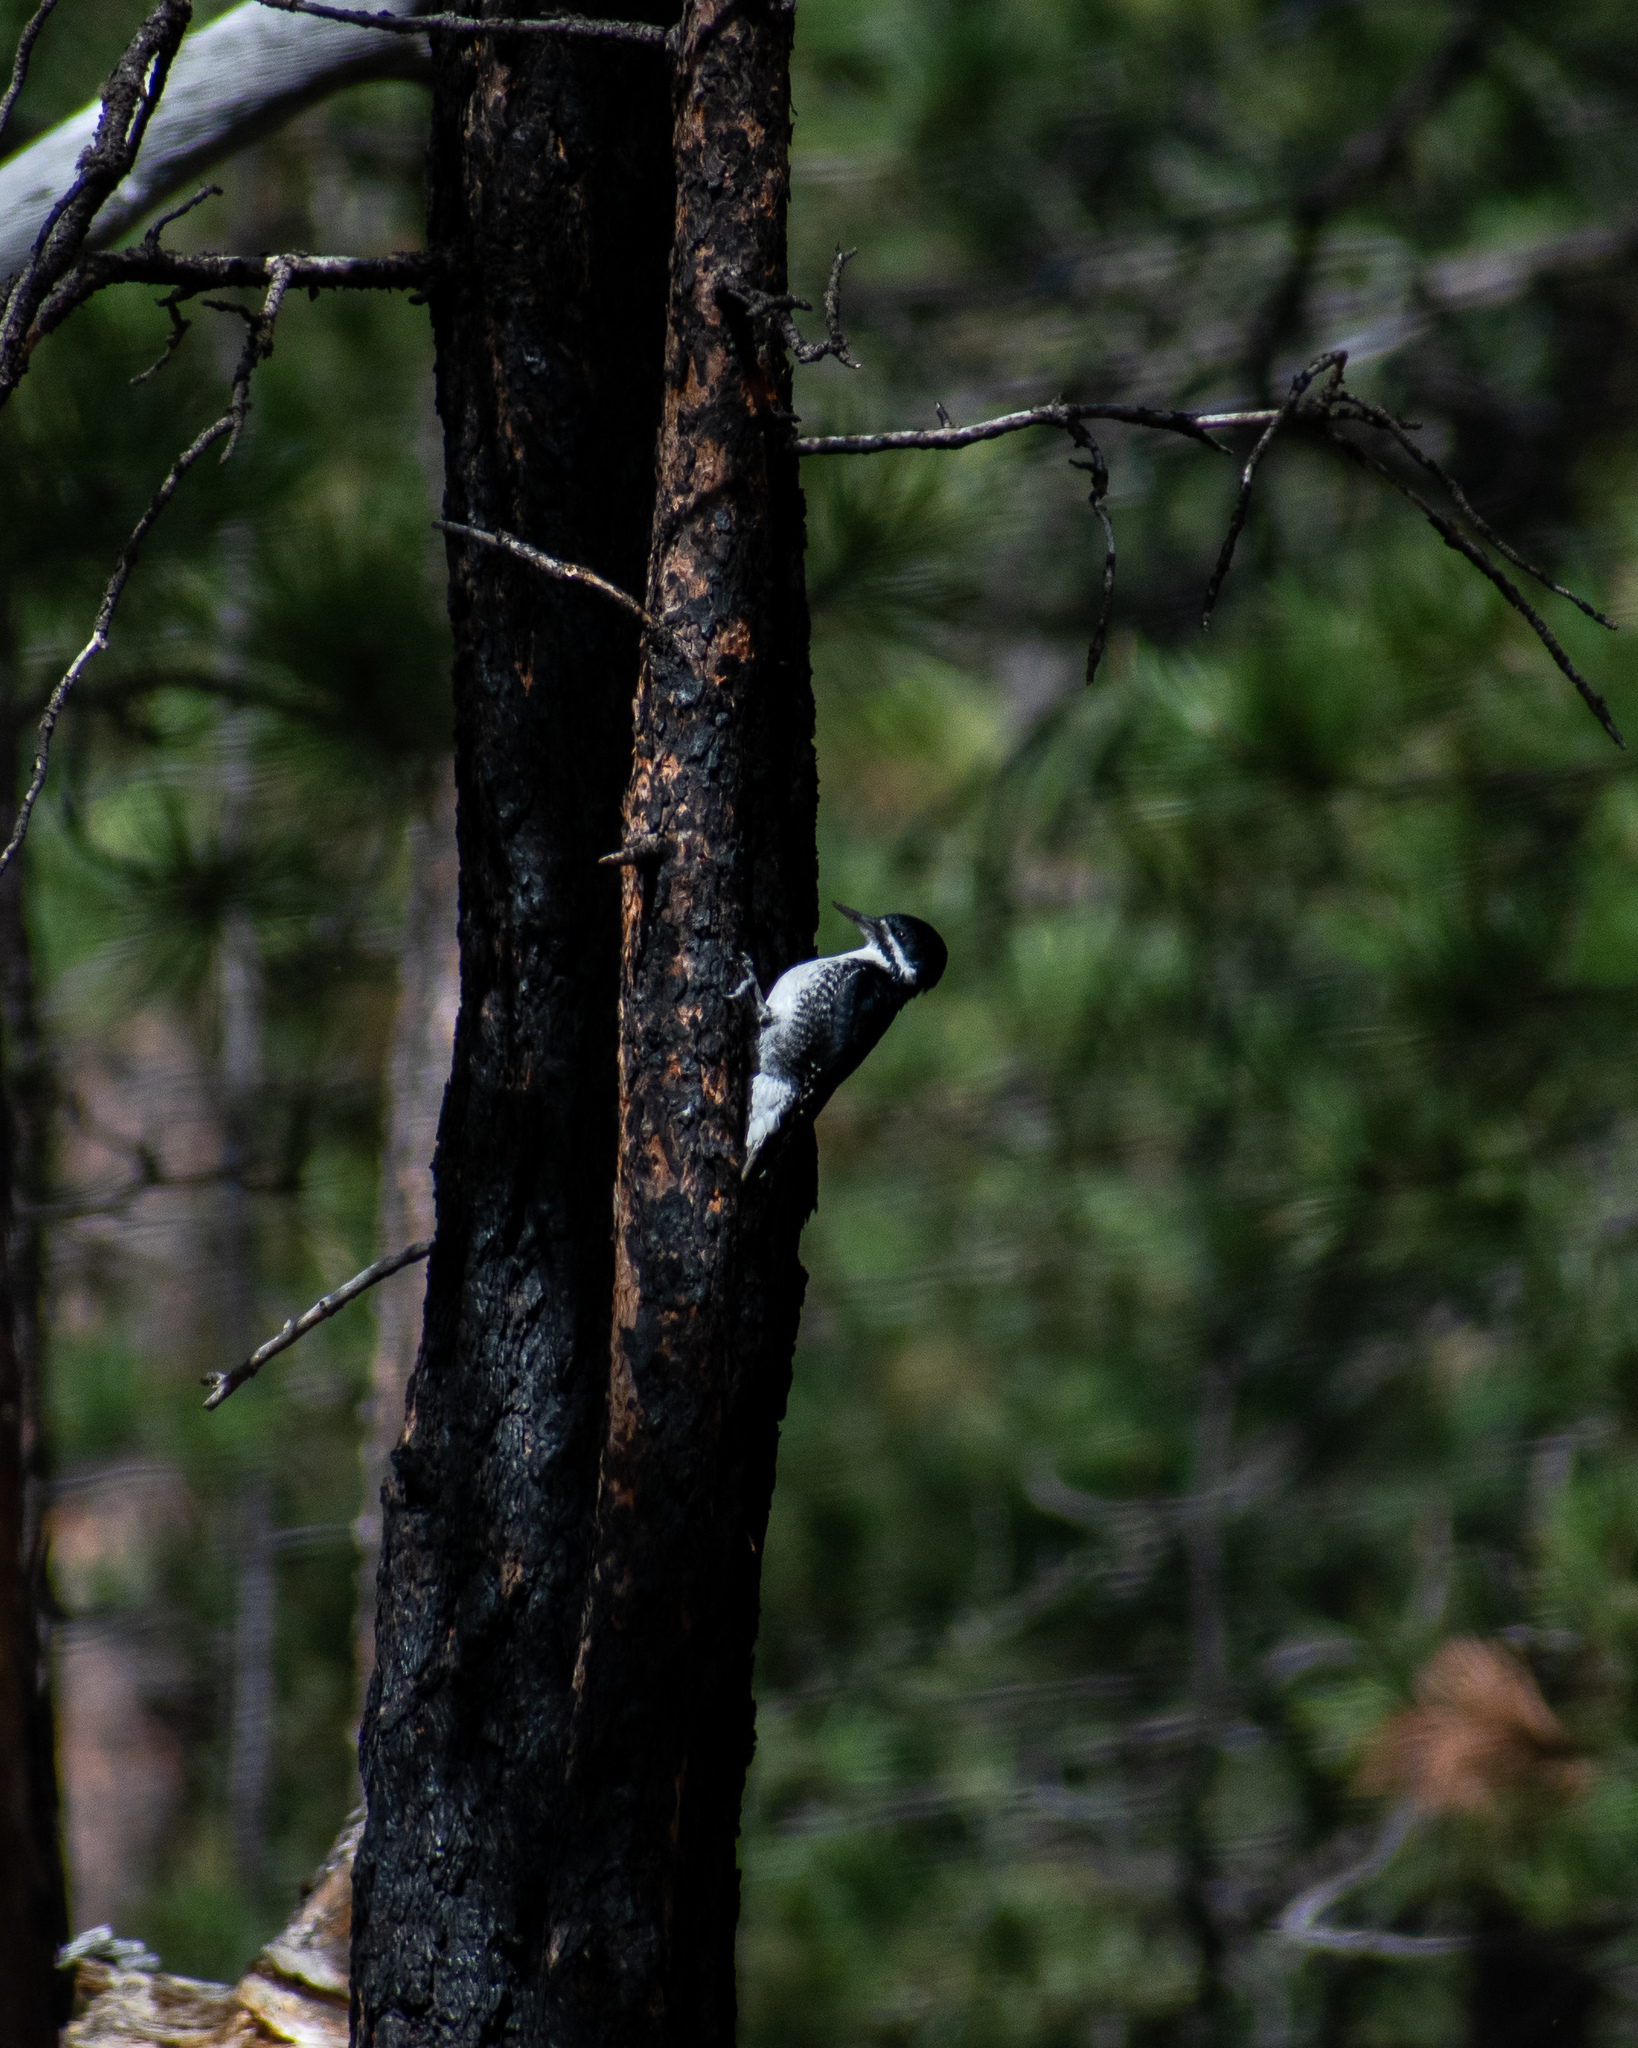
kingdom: Animalia
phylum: Chordata
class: Aves
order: Piciformes
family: Picidae
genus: Picoides
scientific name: Picoides arcticus
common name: Black-backed woodpecker
